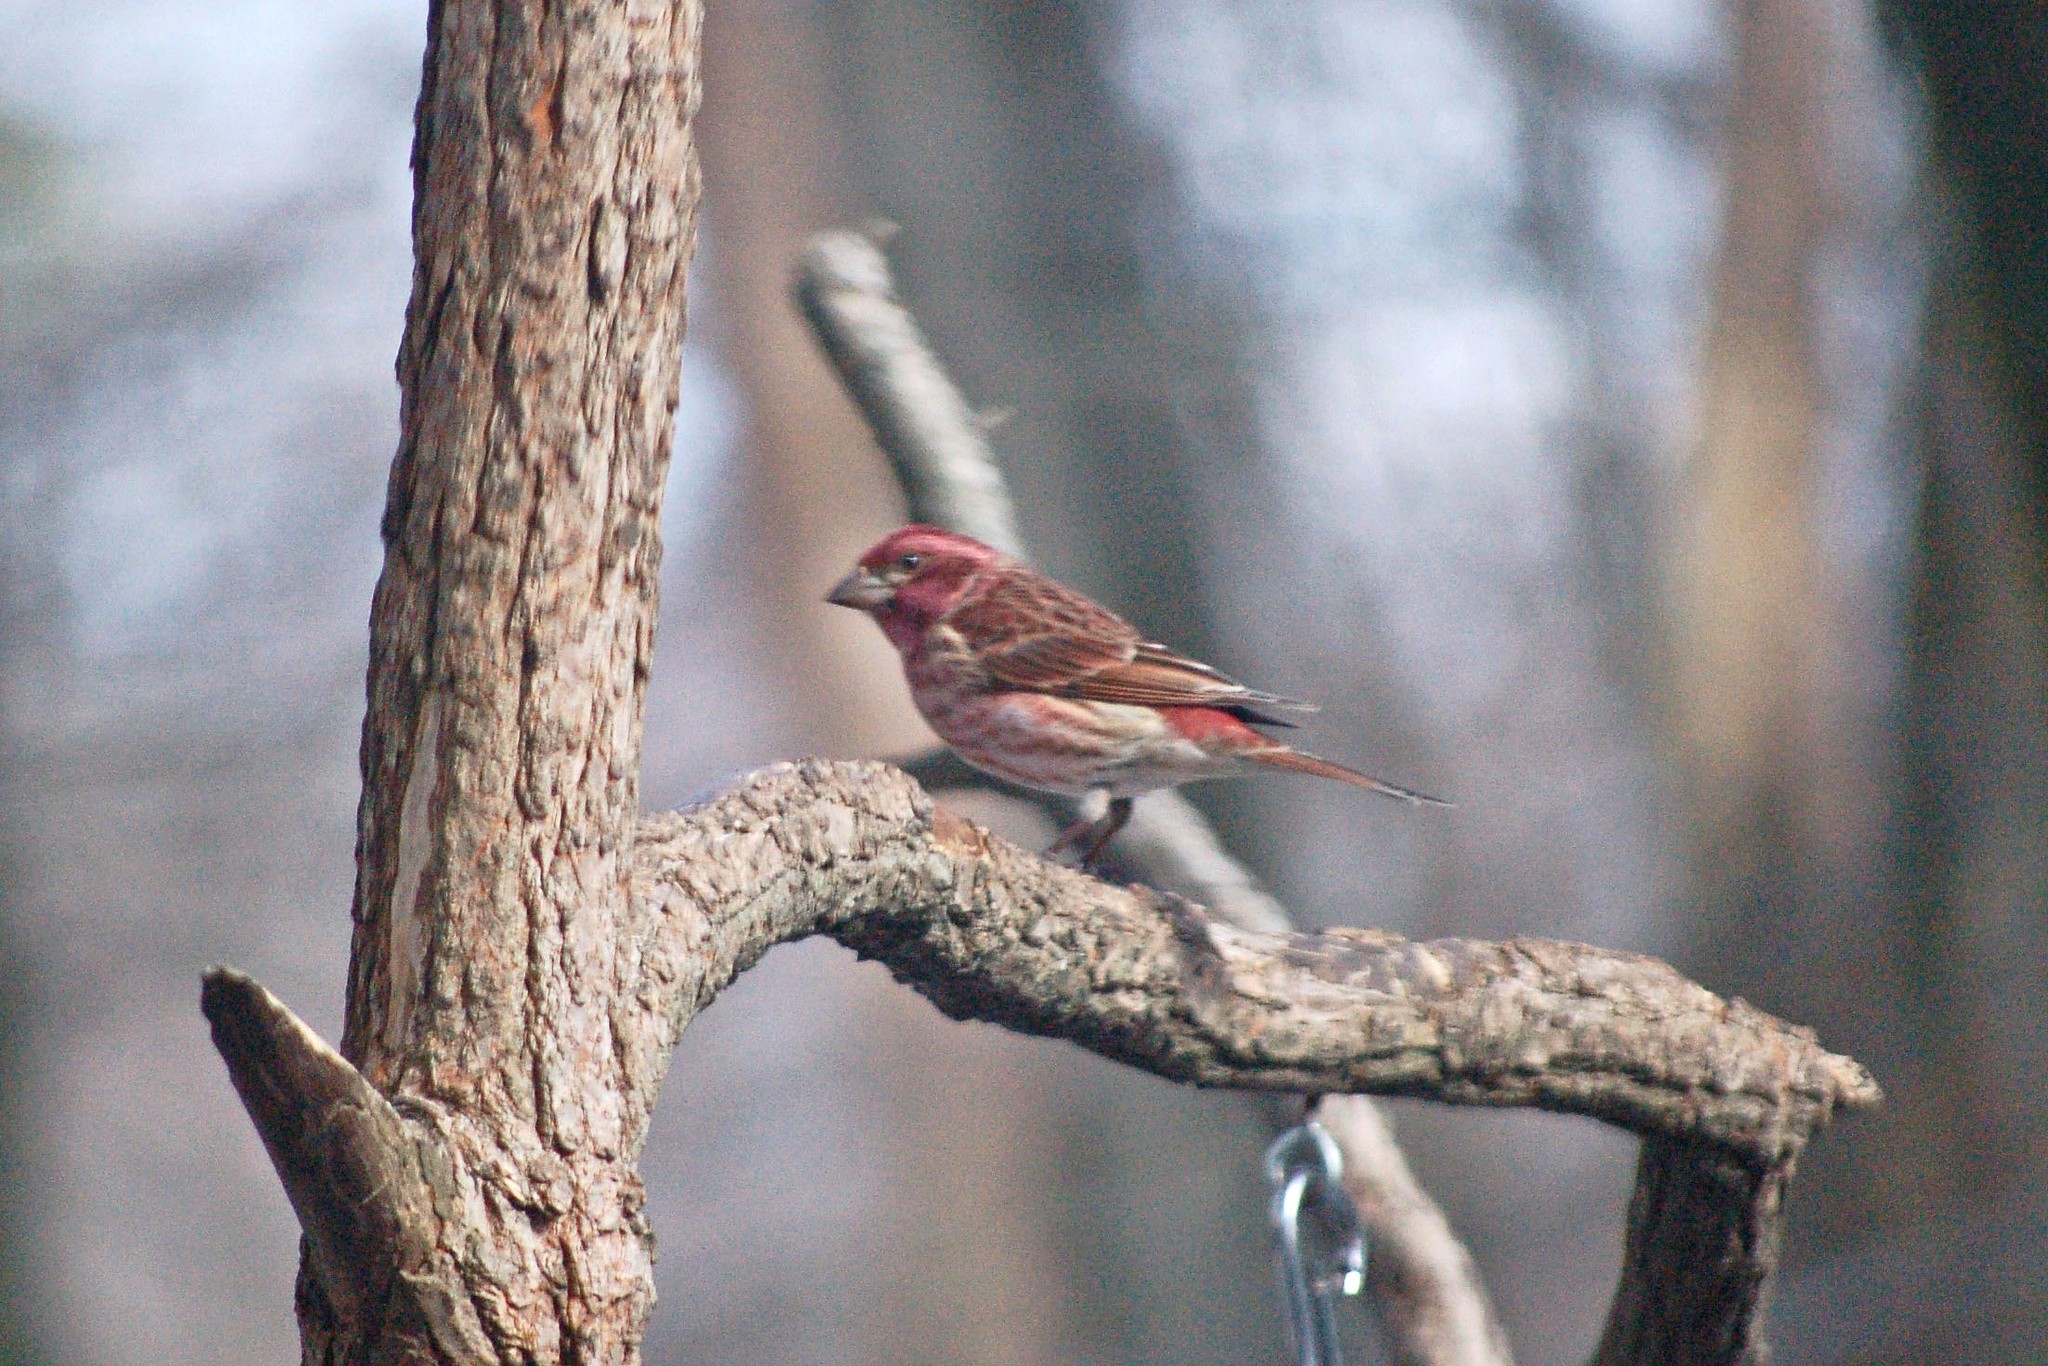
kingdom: Animalia
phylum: Chordata
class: Aves
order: Passeriformes
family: Fringillidae
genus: Haemorhous
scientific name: Haemorhous purpureus
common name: Purple finch
